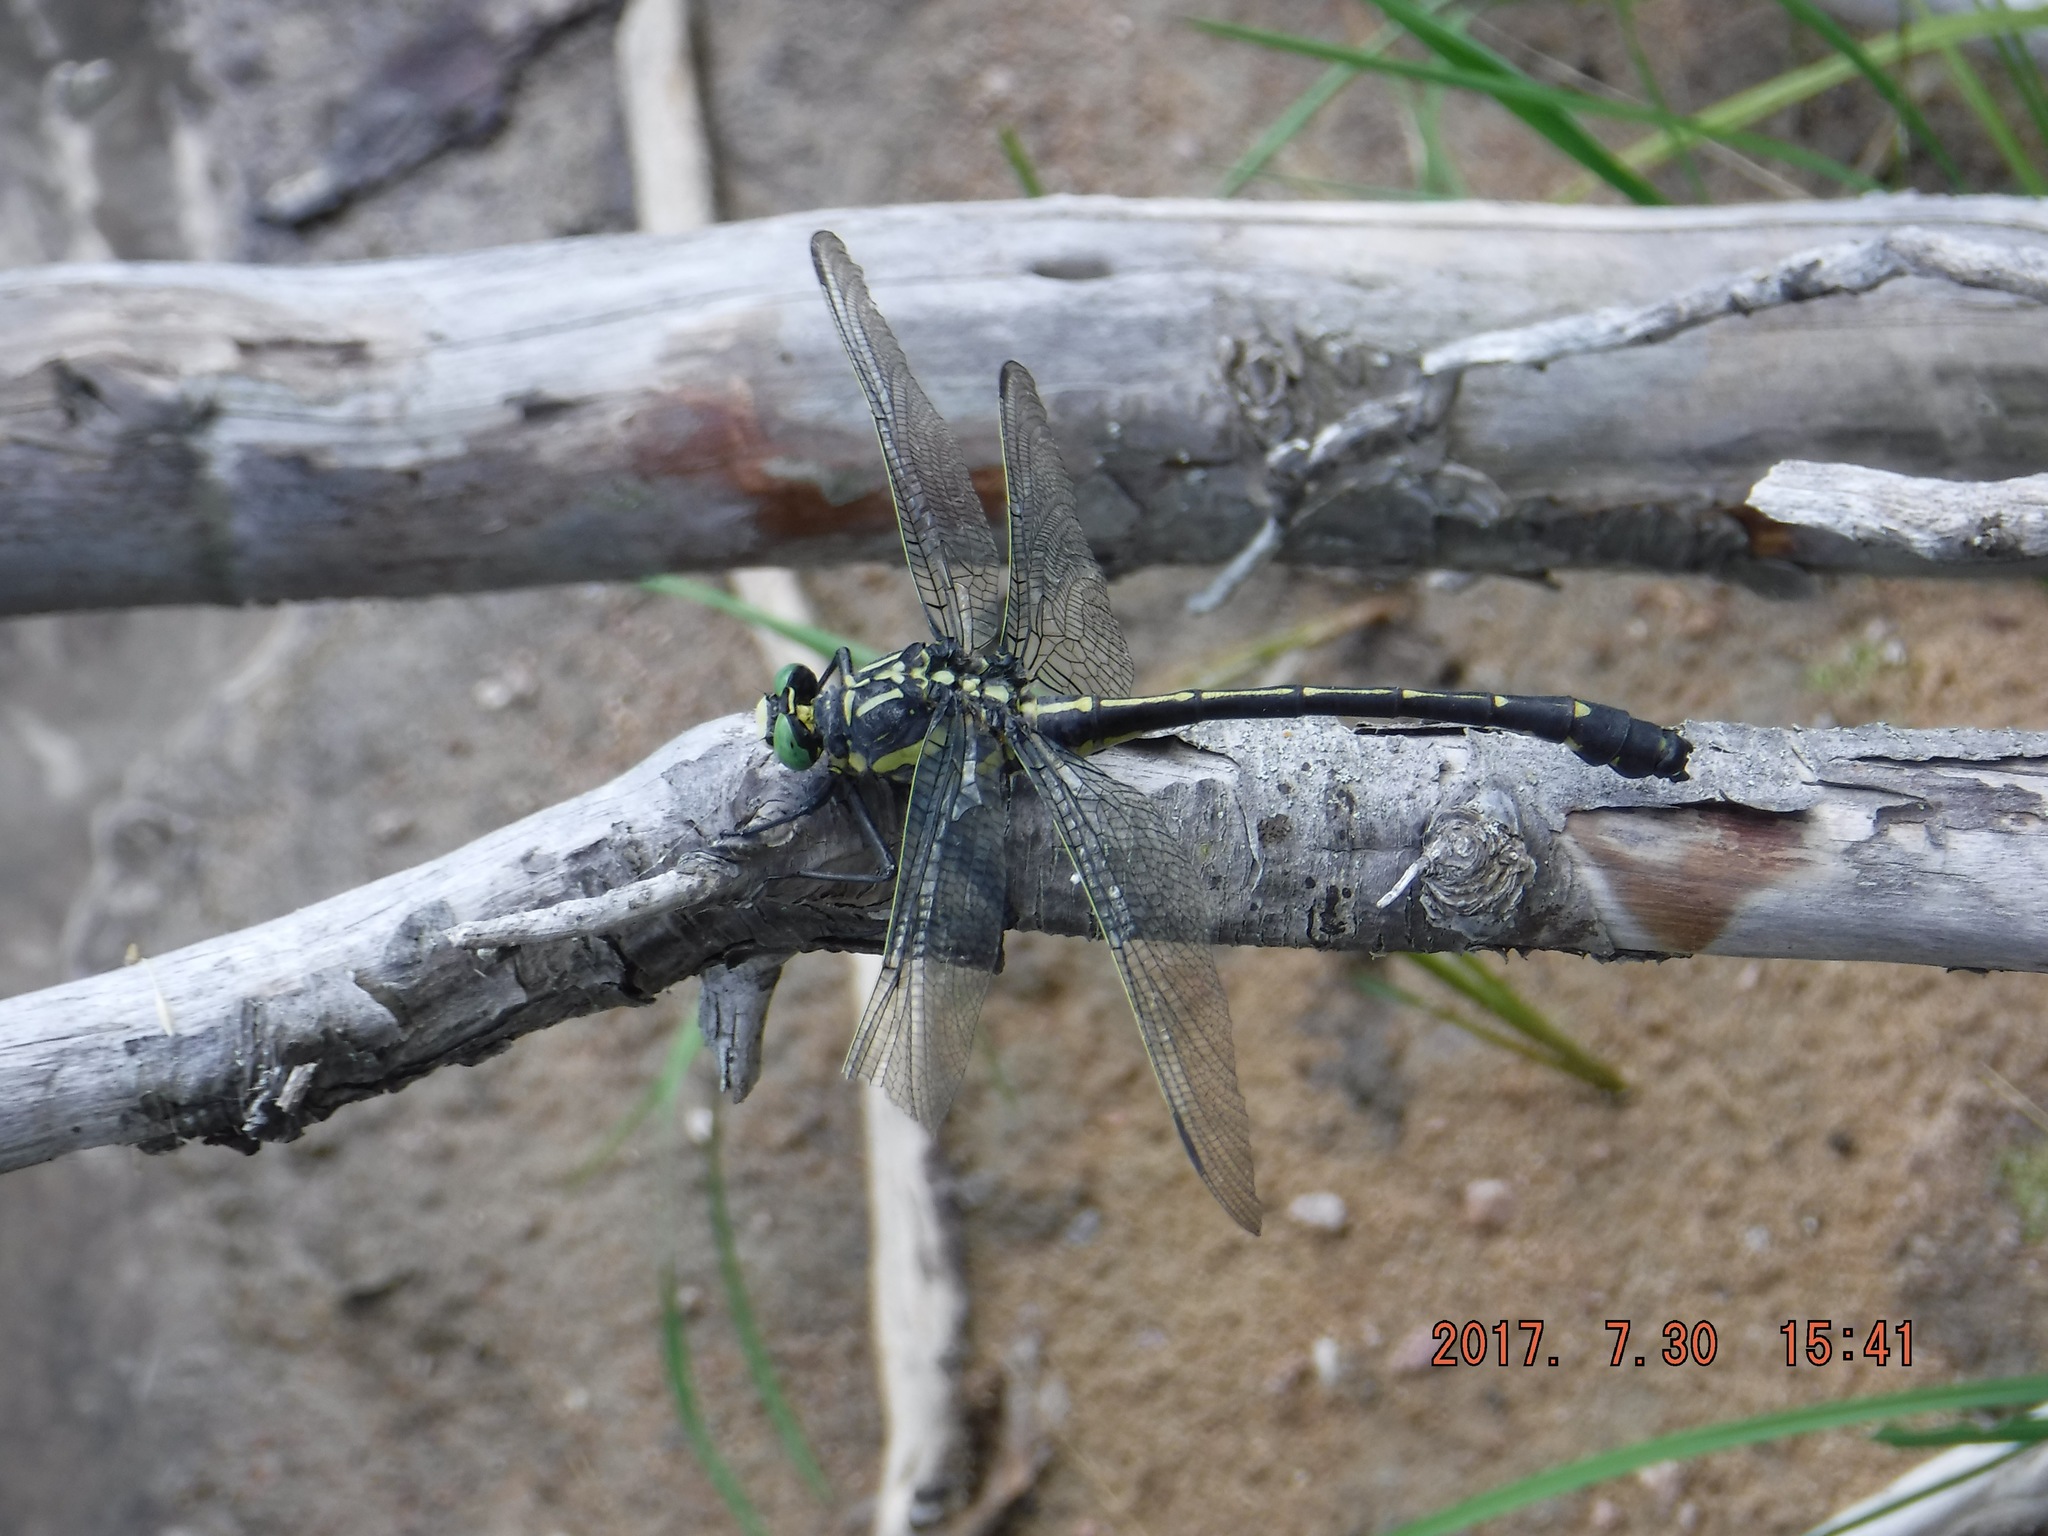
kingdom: Animalia
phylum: Arthropoda
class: Insecta
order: Odonata
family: Gomphidae
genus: Hagenius
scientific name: Hagenius brevistylus
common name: Dragonhunter
